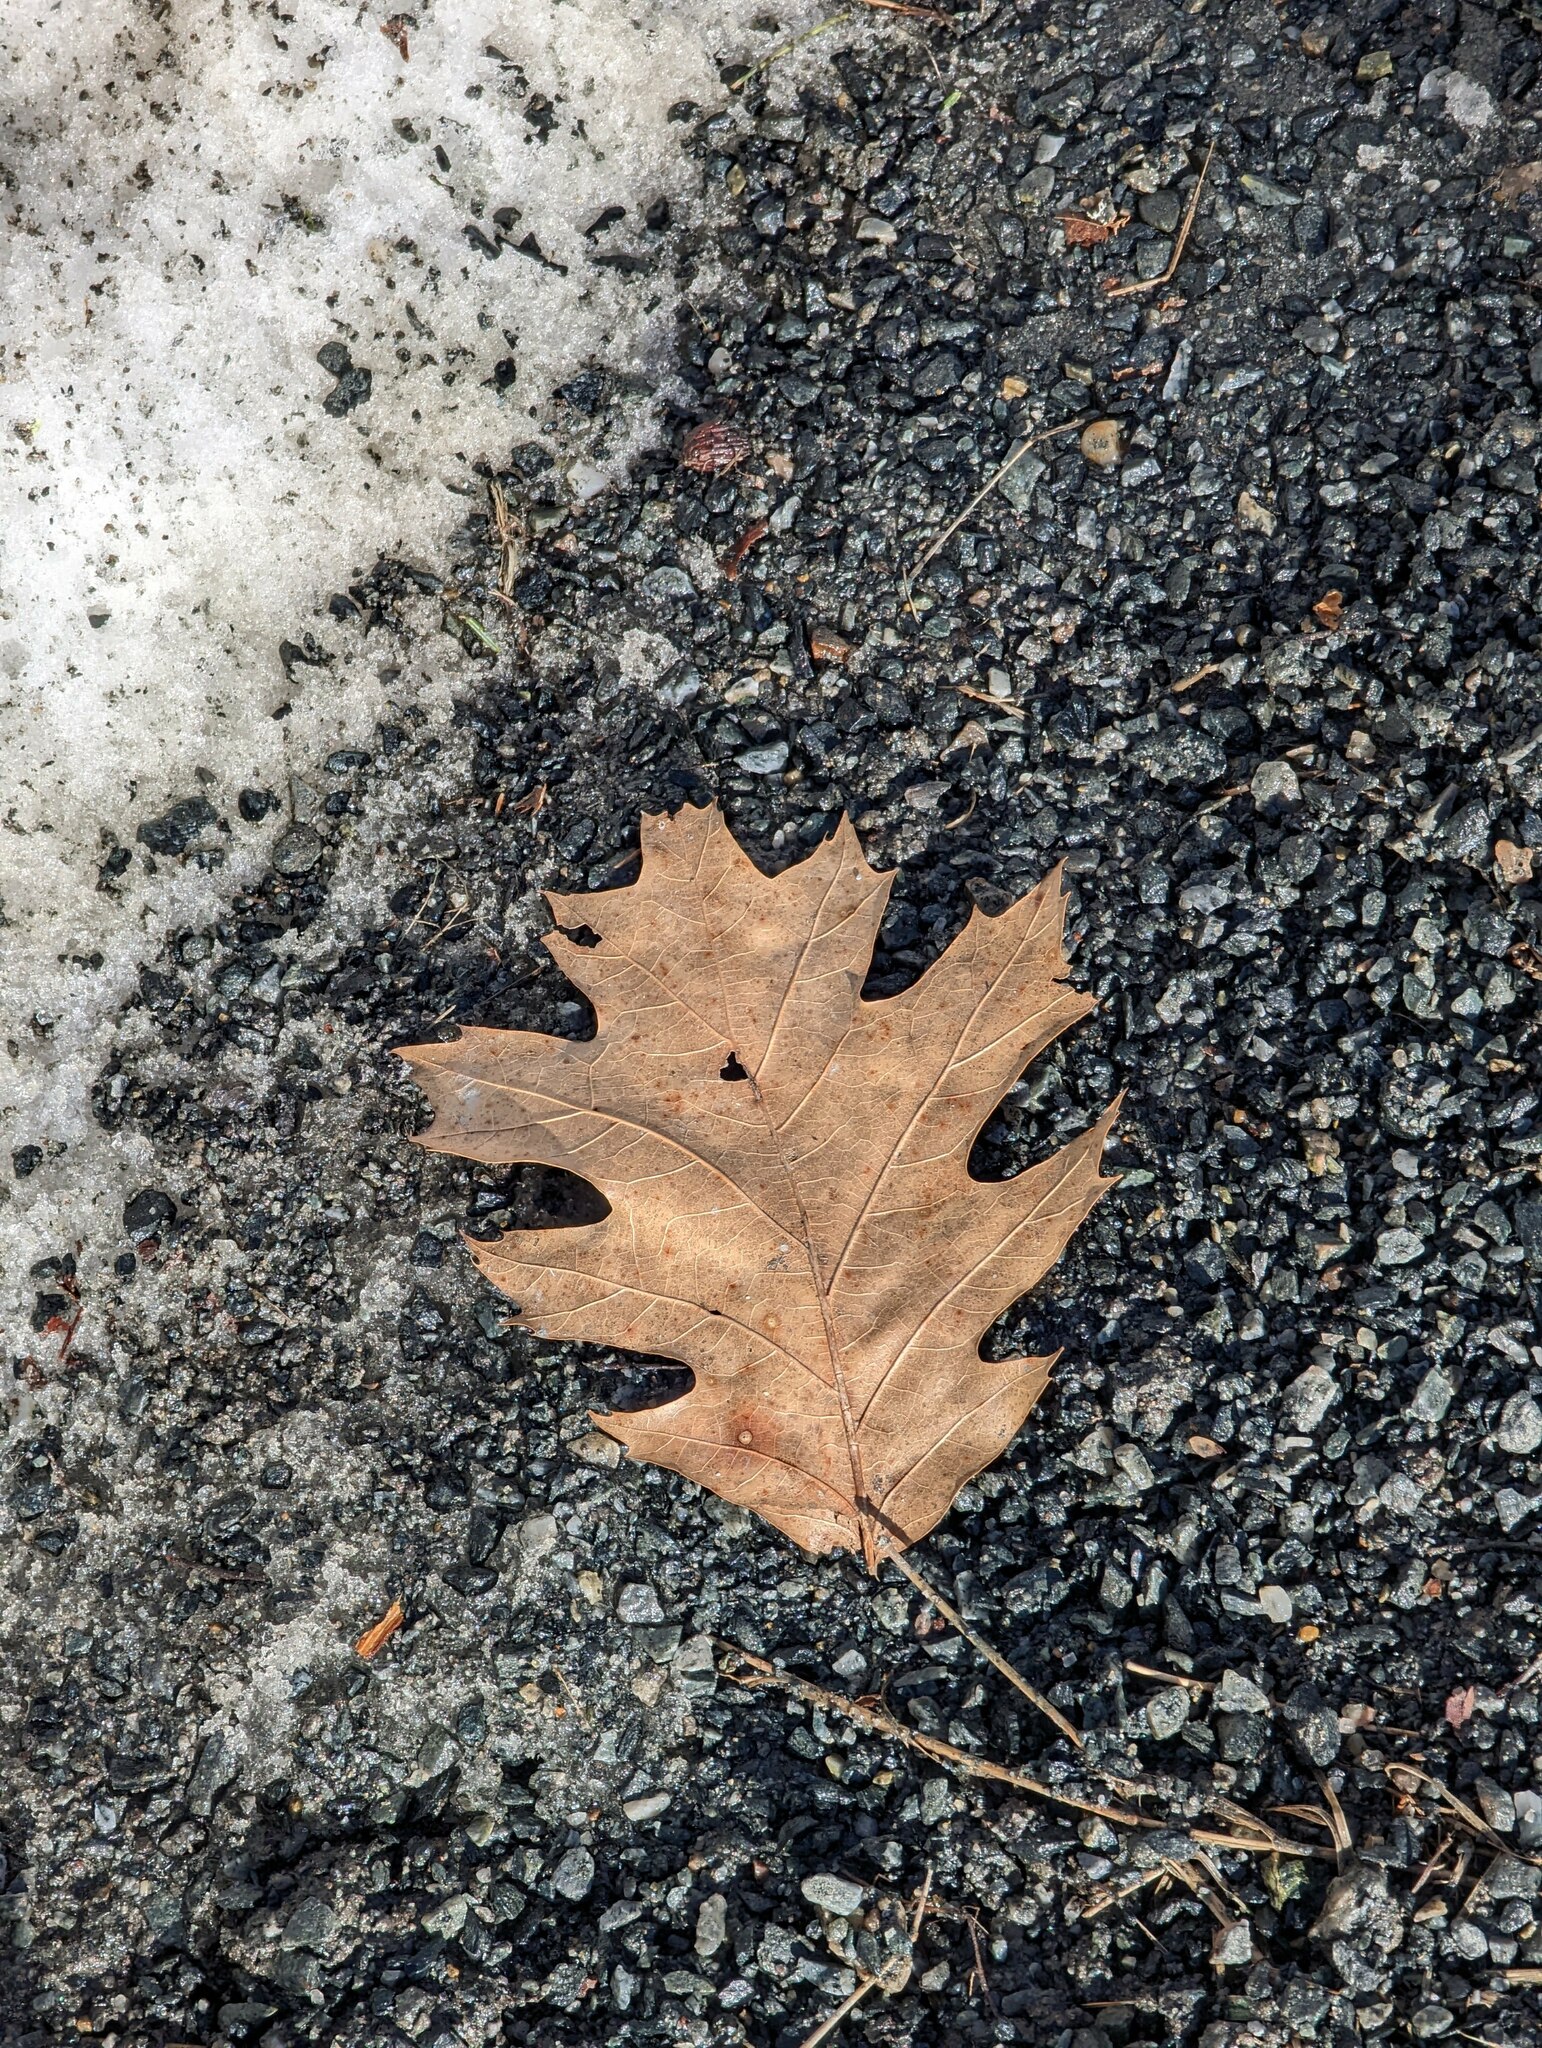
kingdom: Plantae
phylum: Tracheophyta
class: Magnoliopsida
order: Fagales
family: Fagaceae
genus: Quercus
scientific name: Quercus rubra
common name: Red oak
